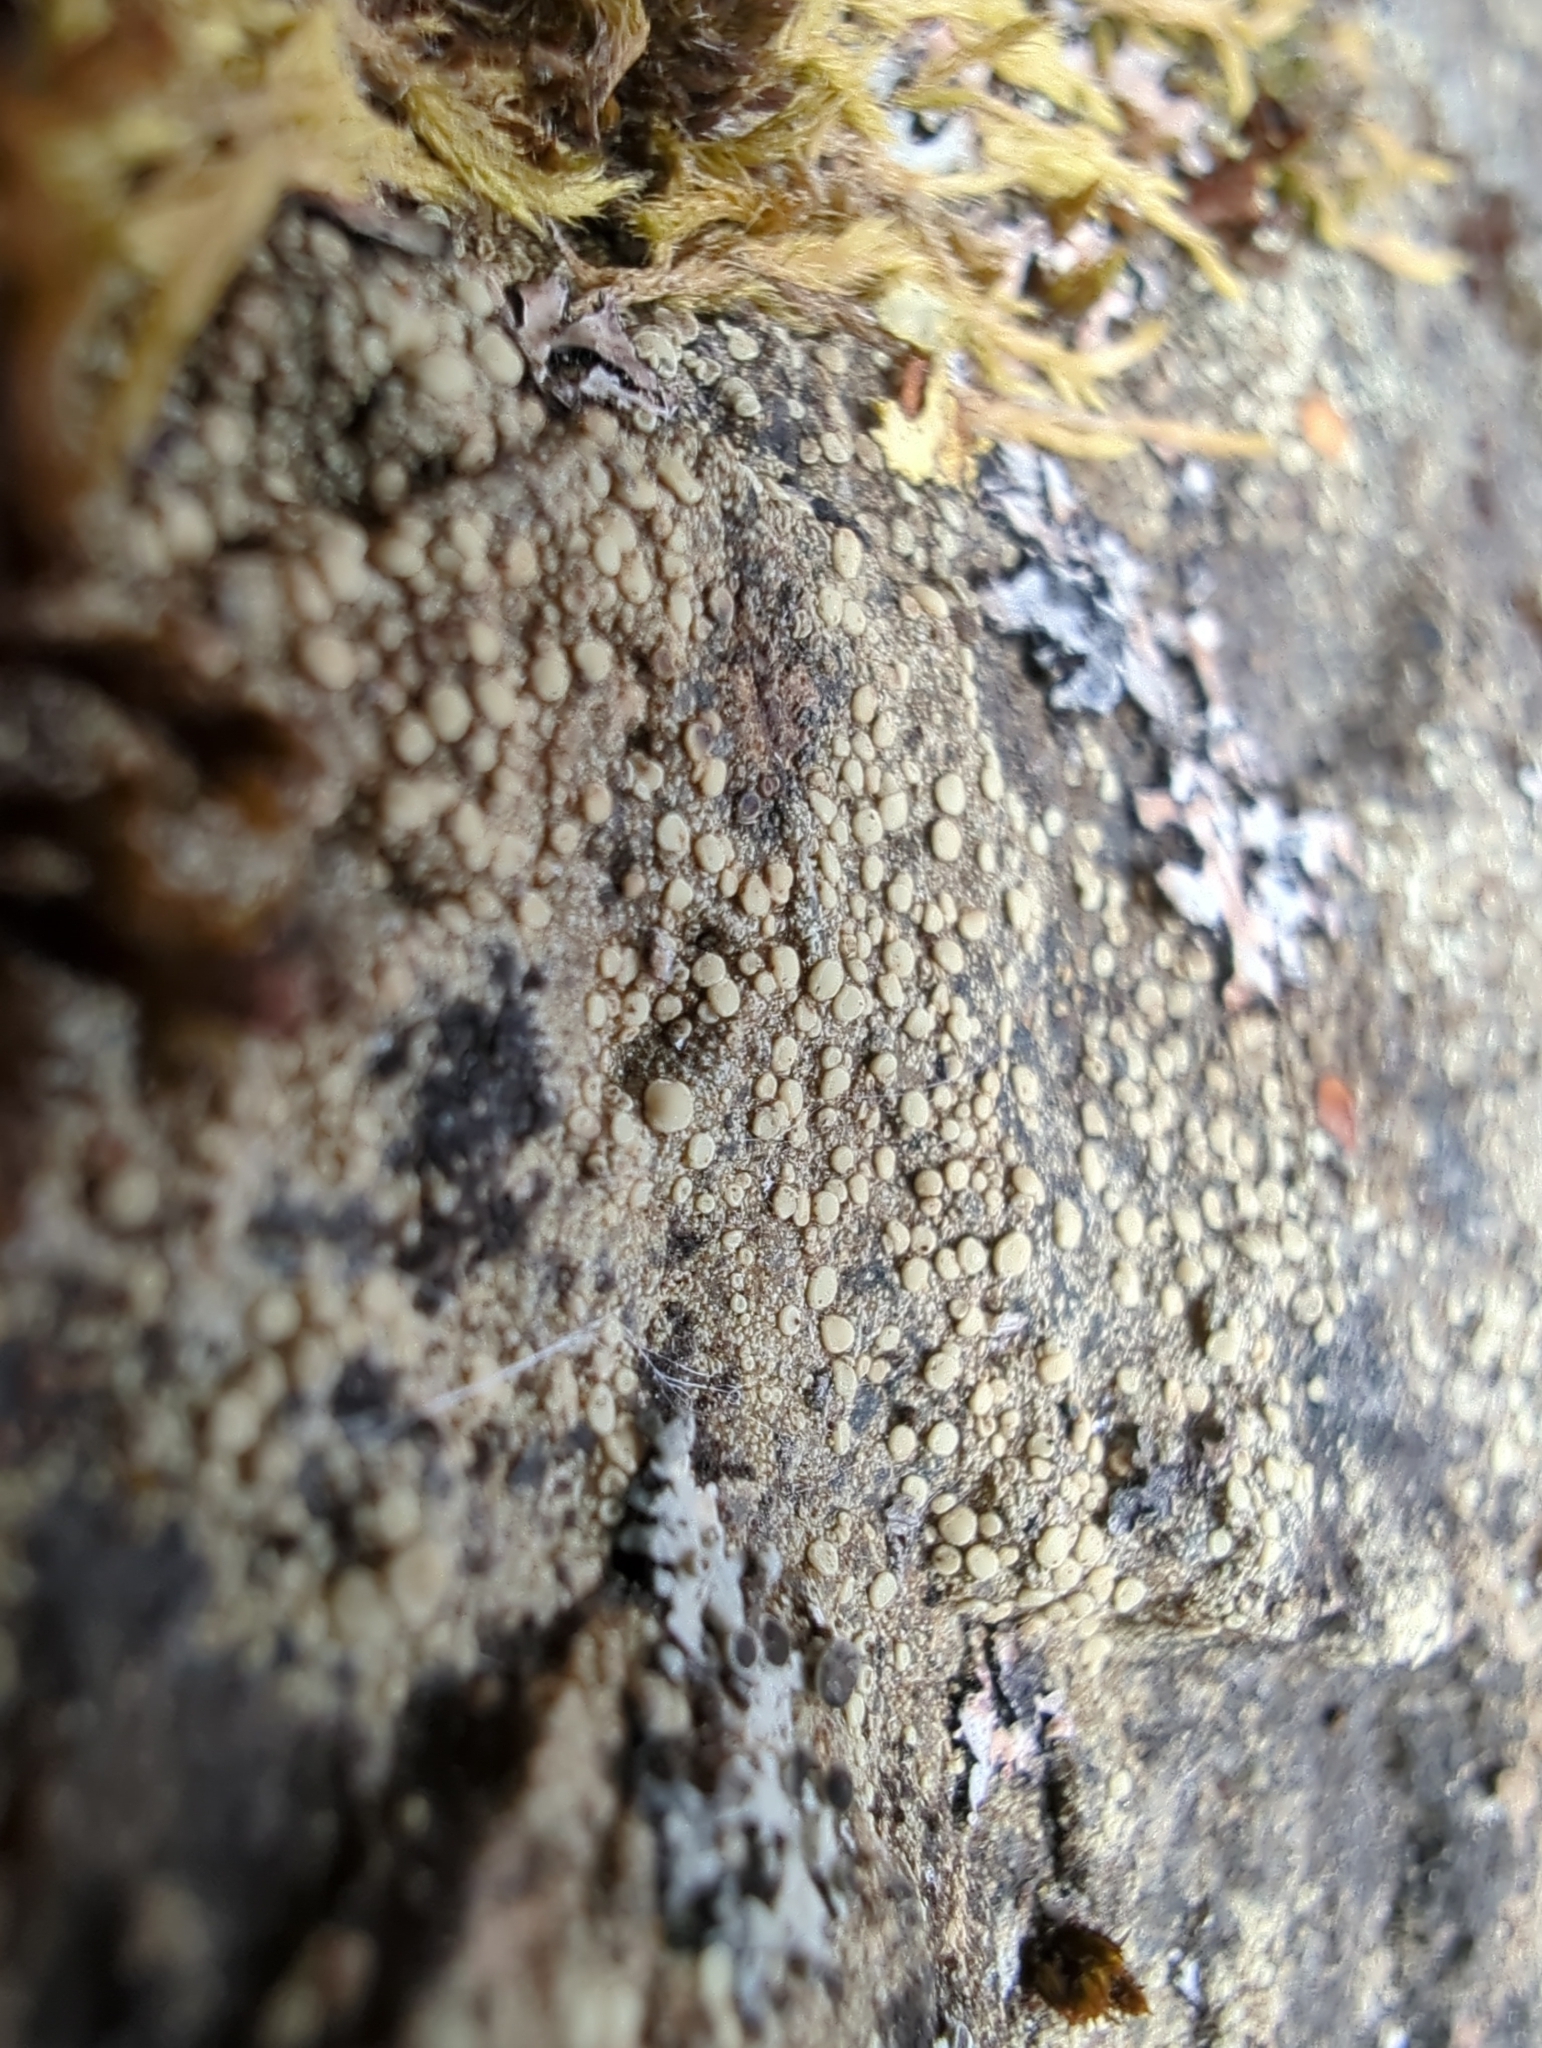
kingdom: Fungi
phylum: Ascomycota
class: Lecanoromycetes
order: Lecanorales
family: Lecanoraceae
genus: Lecanora
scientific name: Lecanora polytropa
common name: Granite-speck rim lichen
